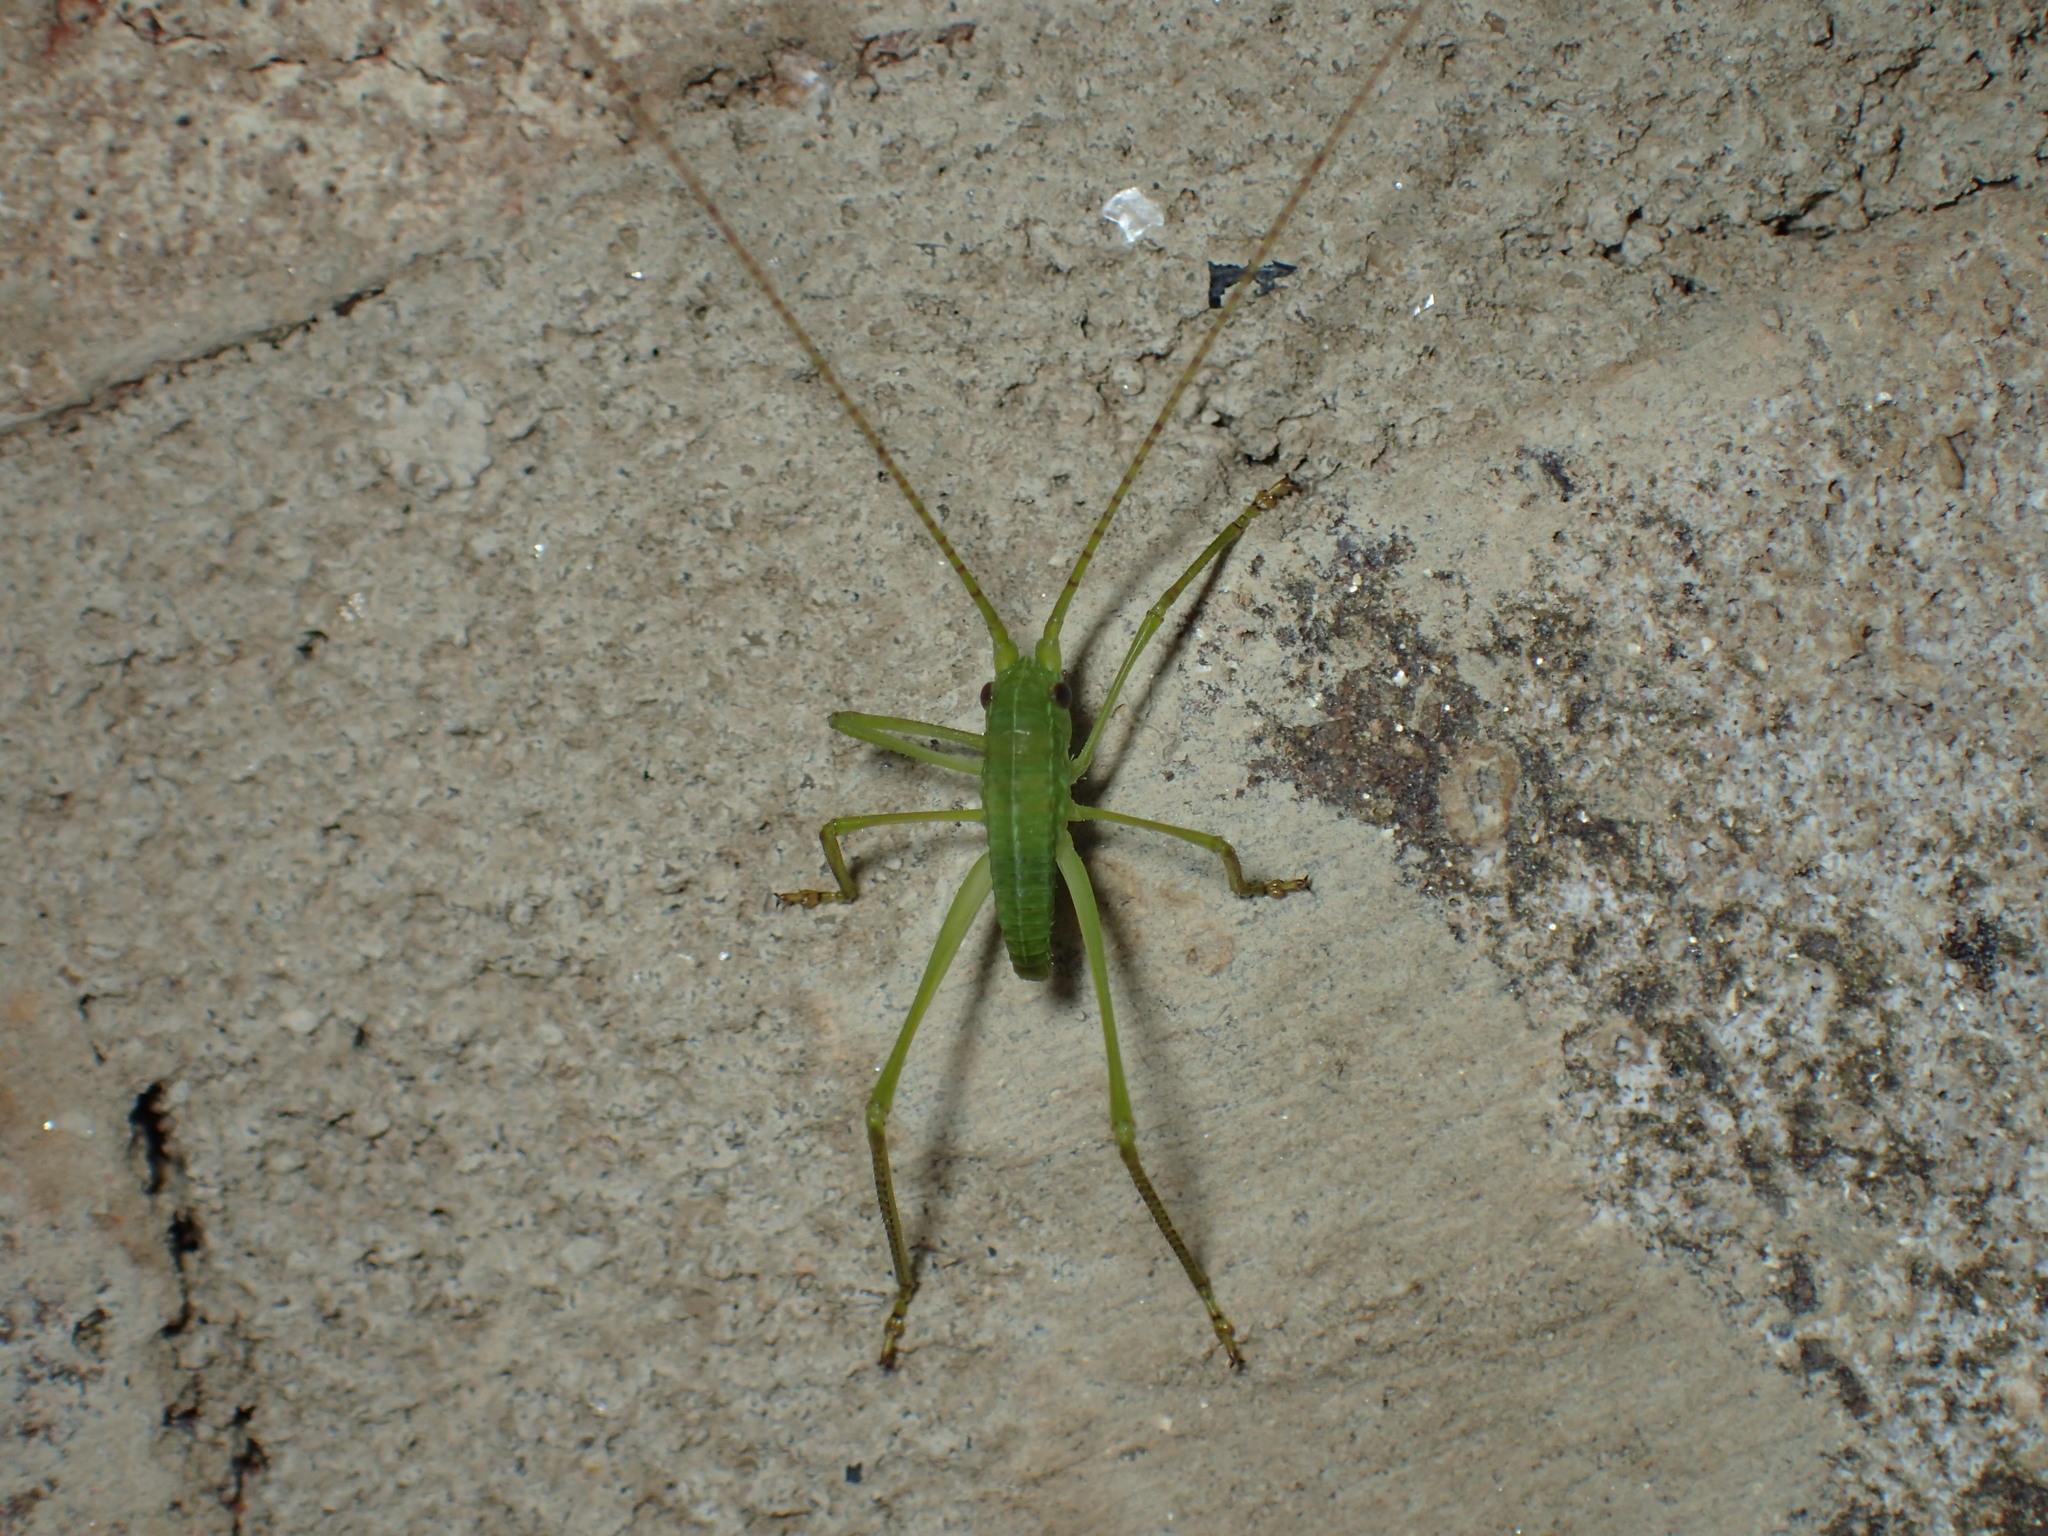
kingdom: Animalia
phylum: Arthropoda
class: Insecta
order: Orthoptera
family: Tettigoniidae
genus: Pterophylla
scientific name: Pterophylla camellifolia
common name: Common true katydid
